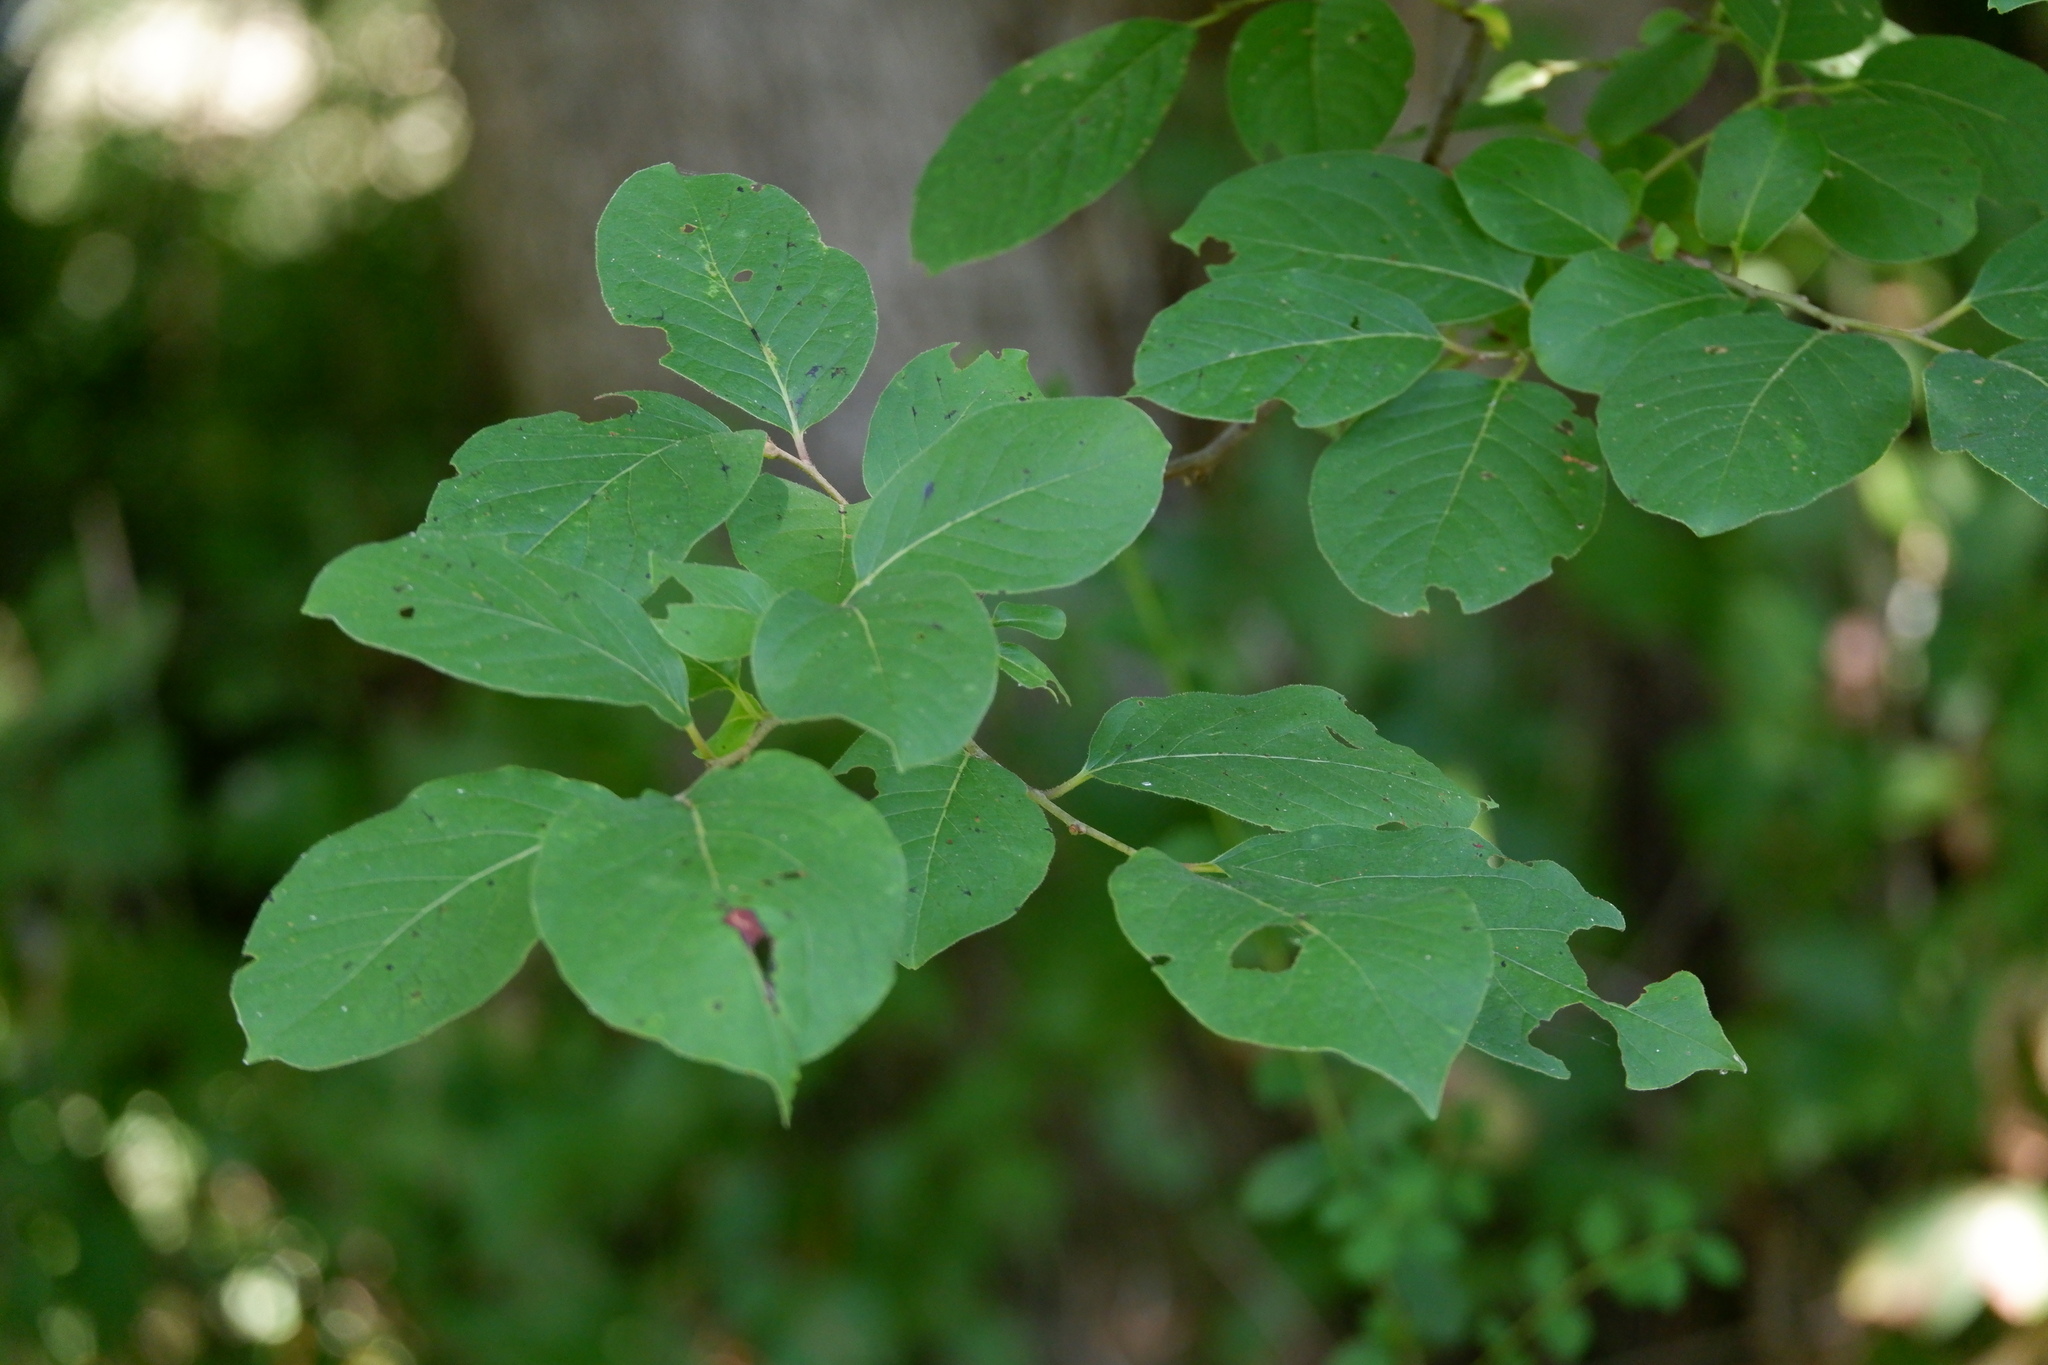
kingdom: Plantae
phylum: Tracheophyta
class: Magnoliopsida
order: Ericales
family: Ebenaceae
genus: Diospyros
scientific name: Diospyros virginiana
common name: Persimmon
